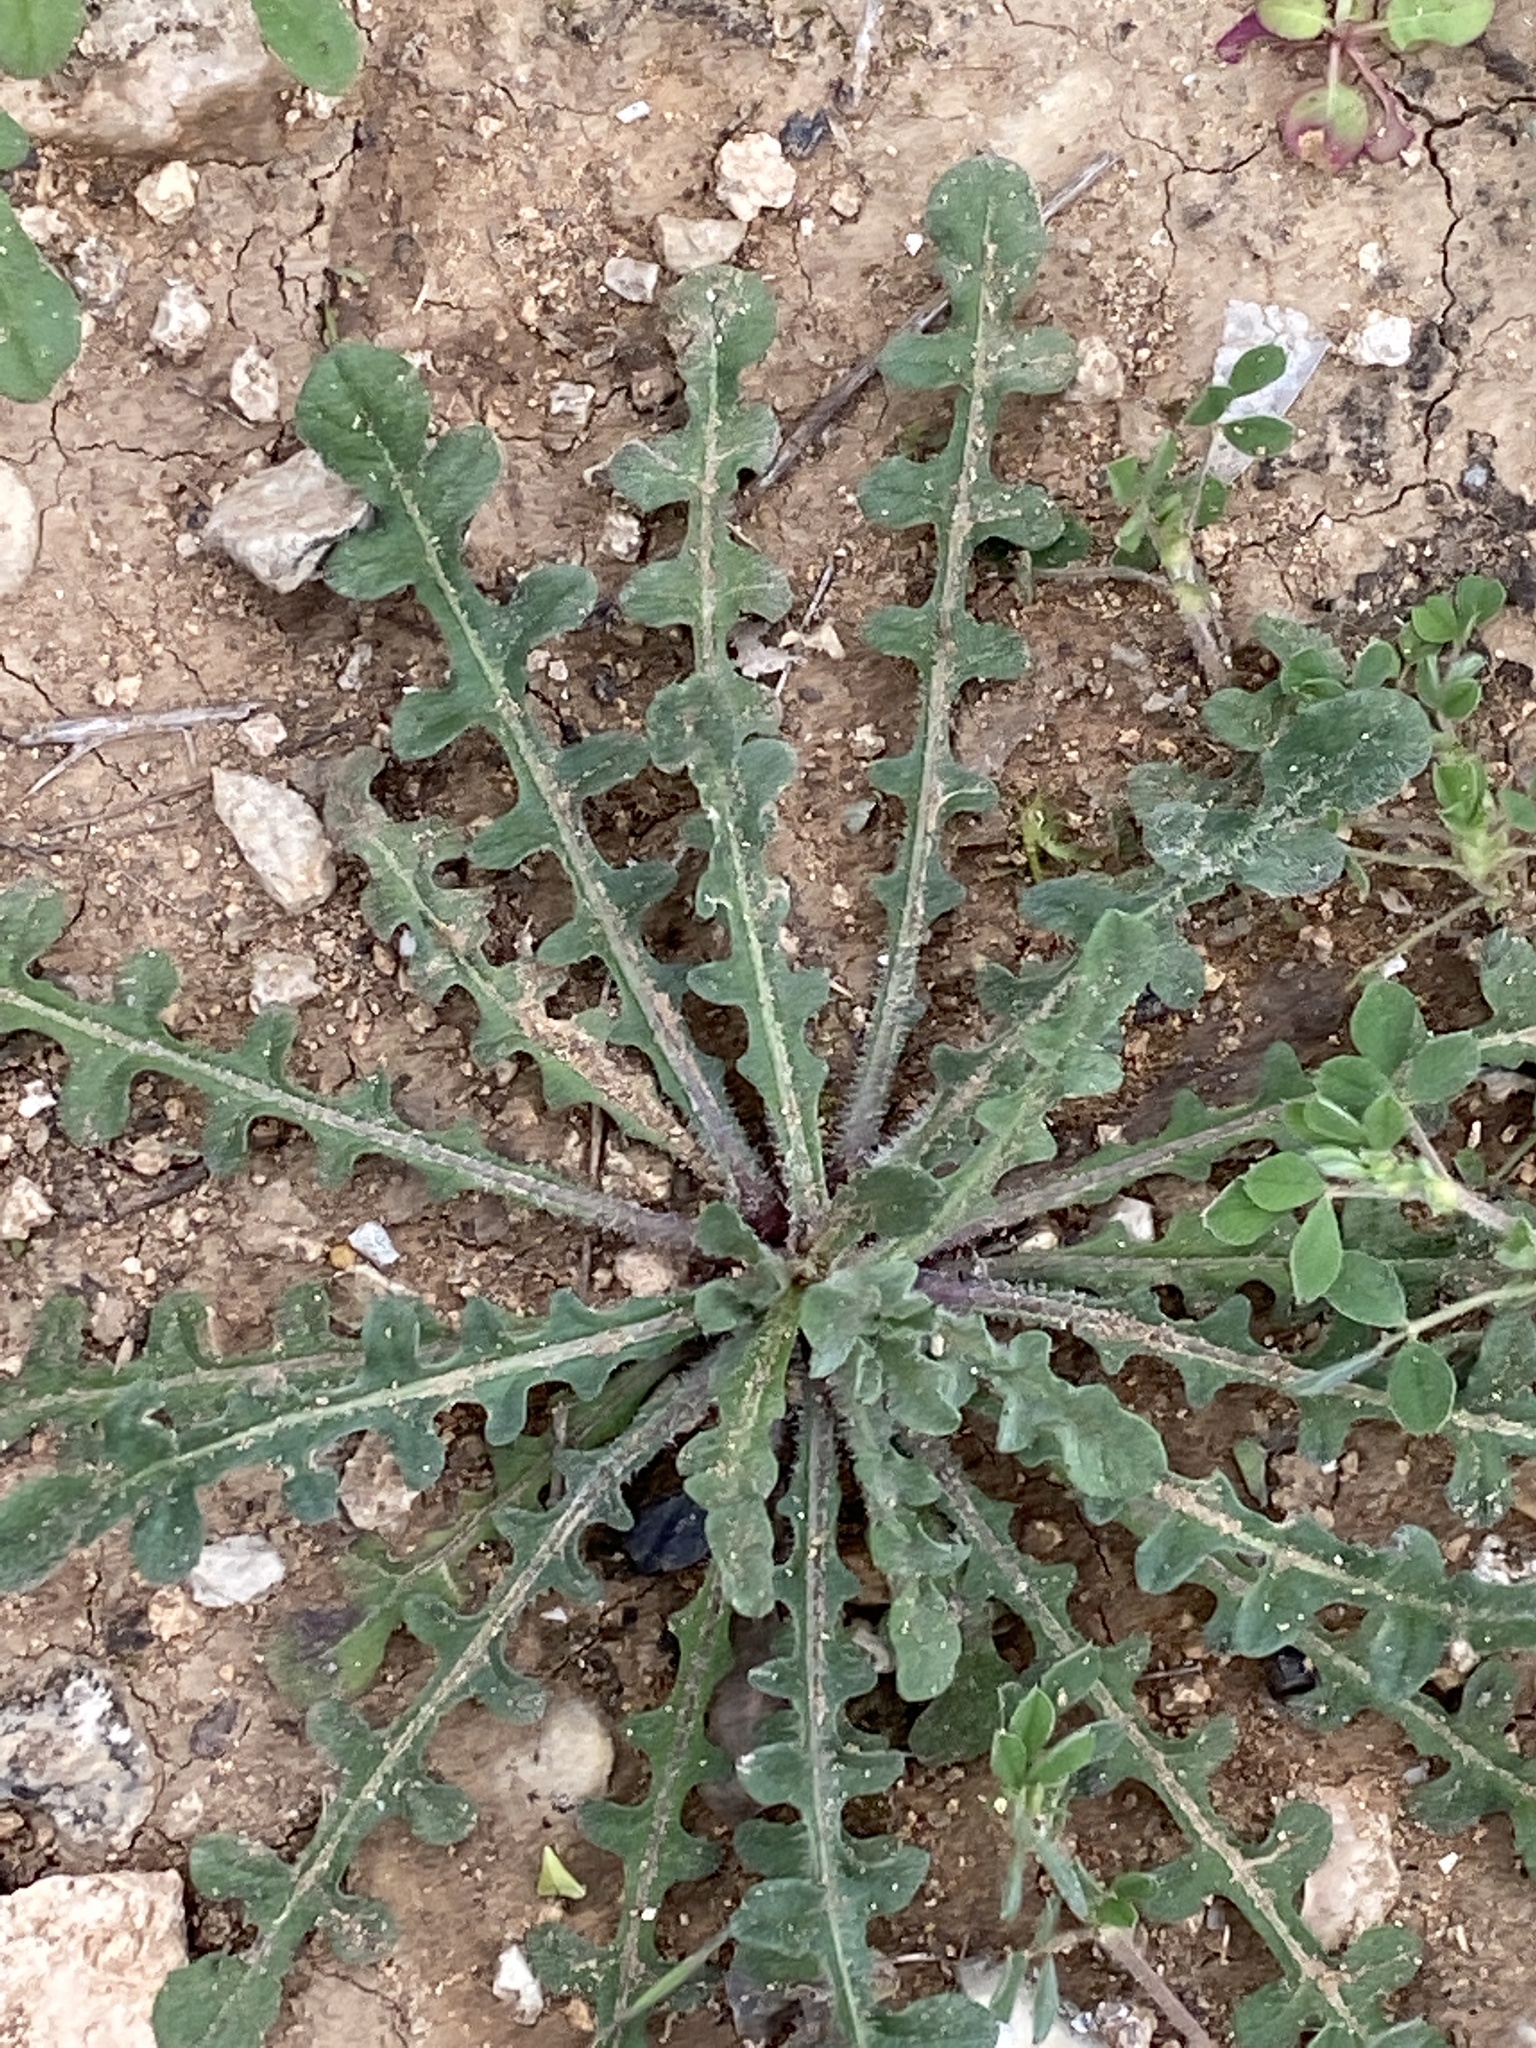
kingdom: Plantae
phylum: Tracheophyta
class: Magnoliopsida
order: Asterales
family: Asteraceae
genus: Centaurea
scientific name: Centaurea melitensis
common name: Maltese star-thistle
